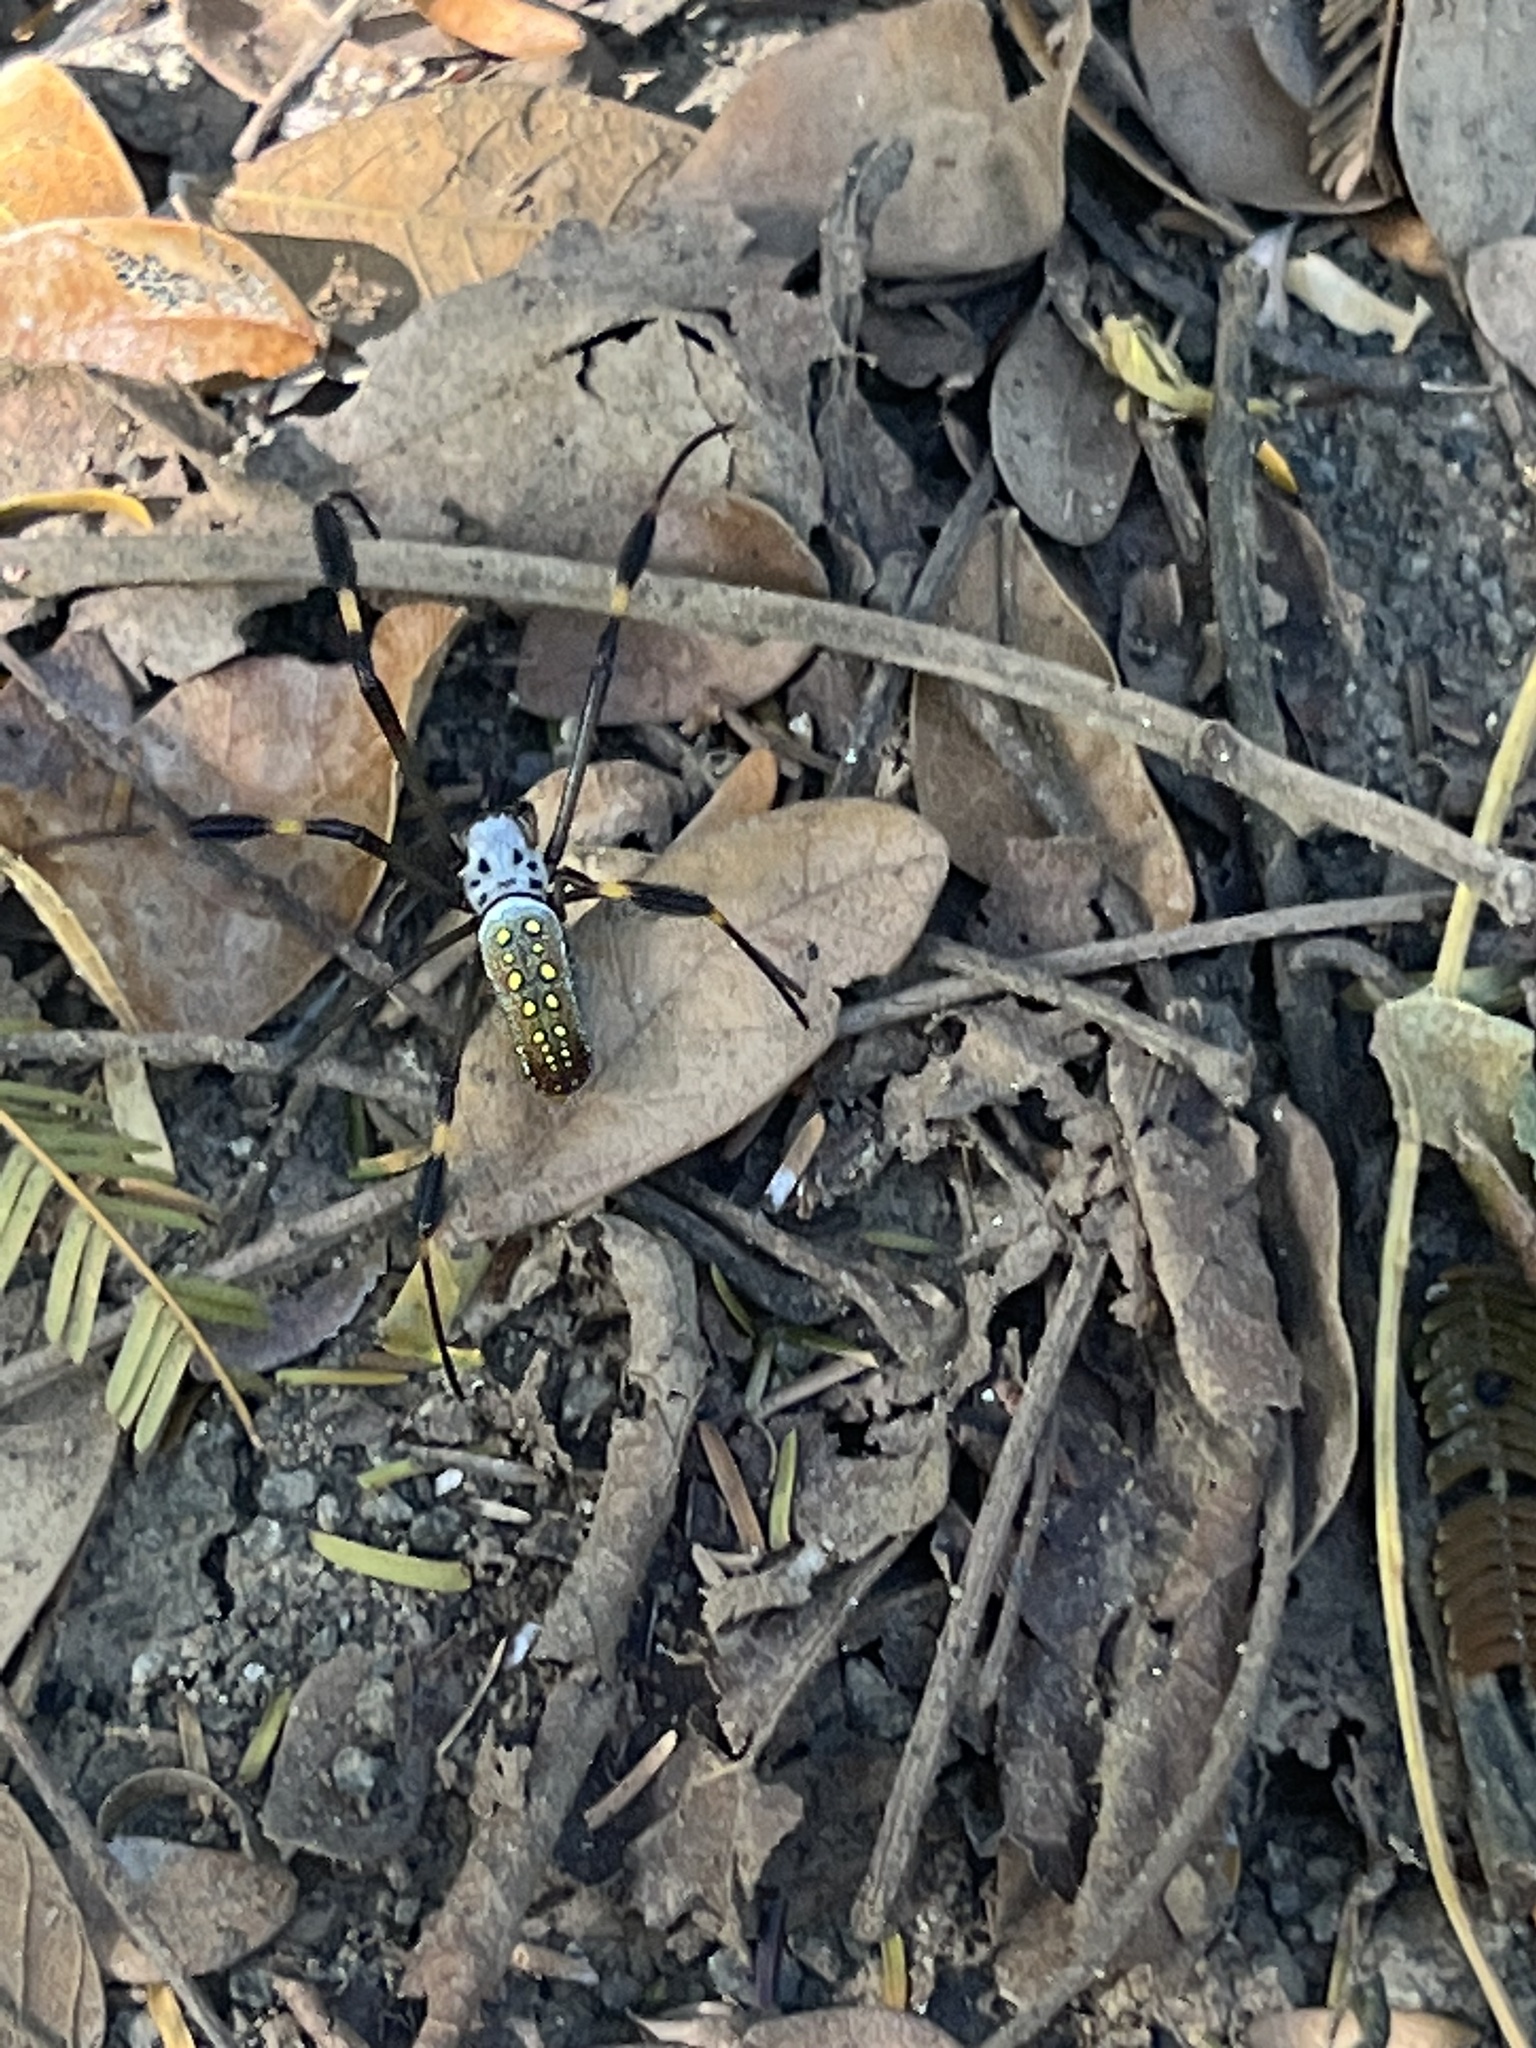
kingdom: Animalia
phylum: Arthropoda
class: Arachnida
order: Araneae
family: Araneidae
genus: Trichonephila
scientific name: Trichonephila clavipes
